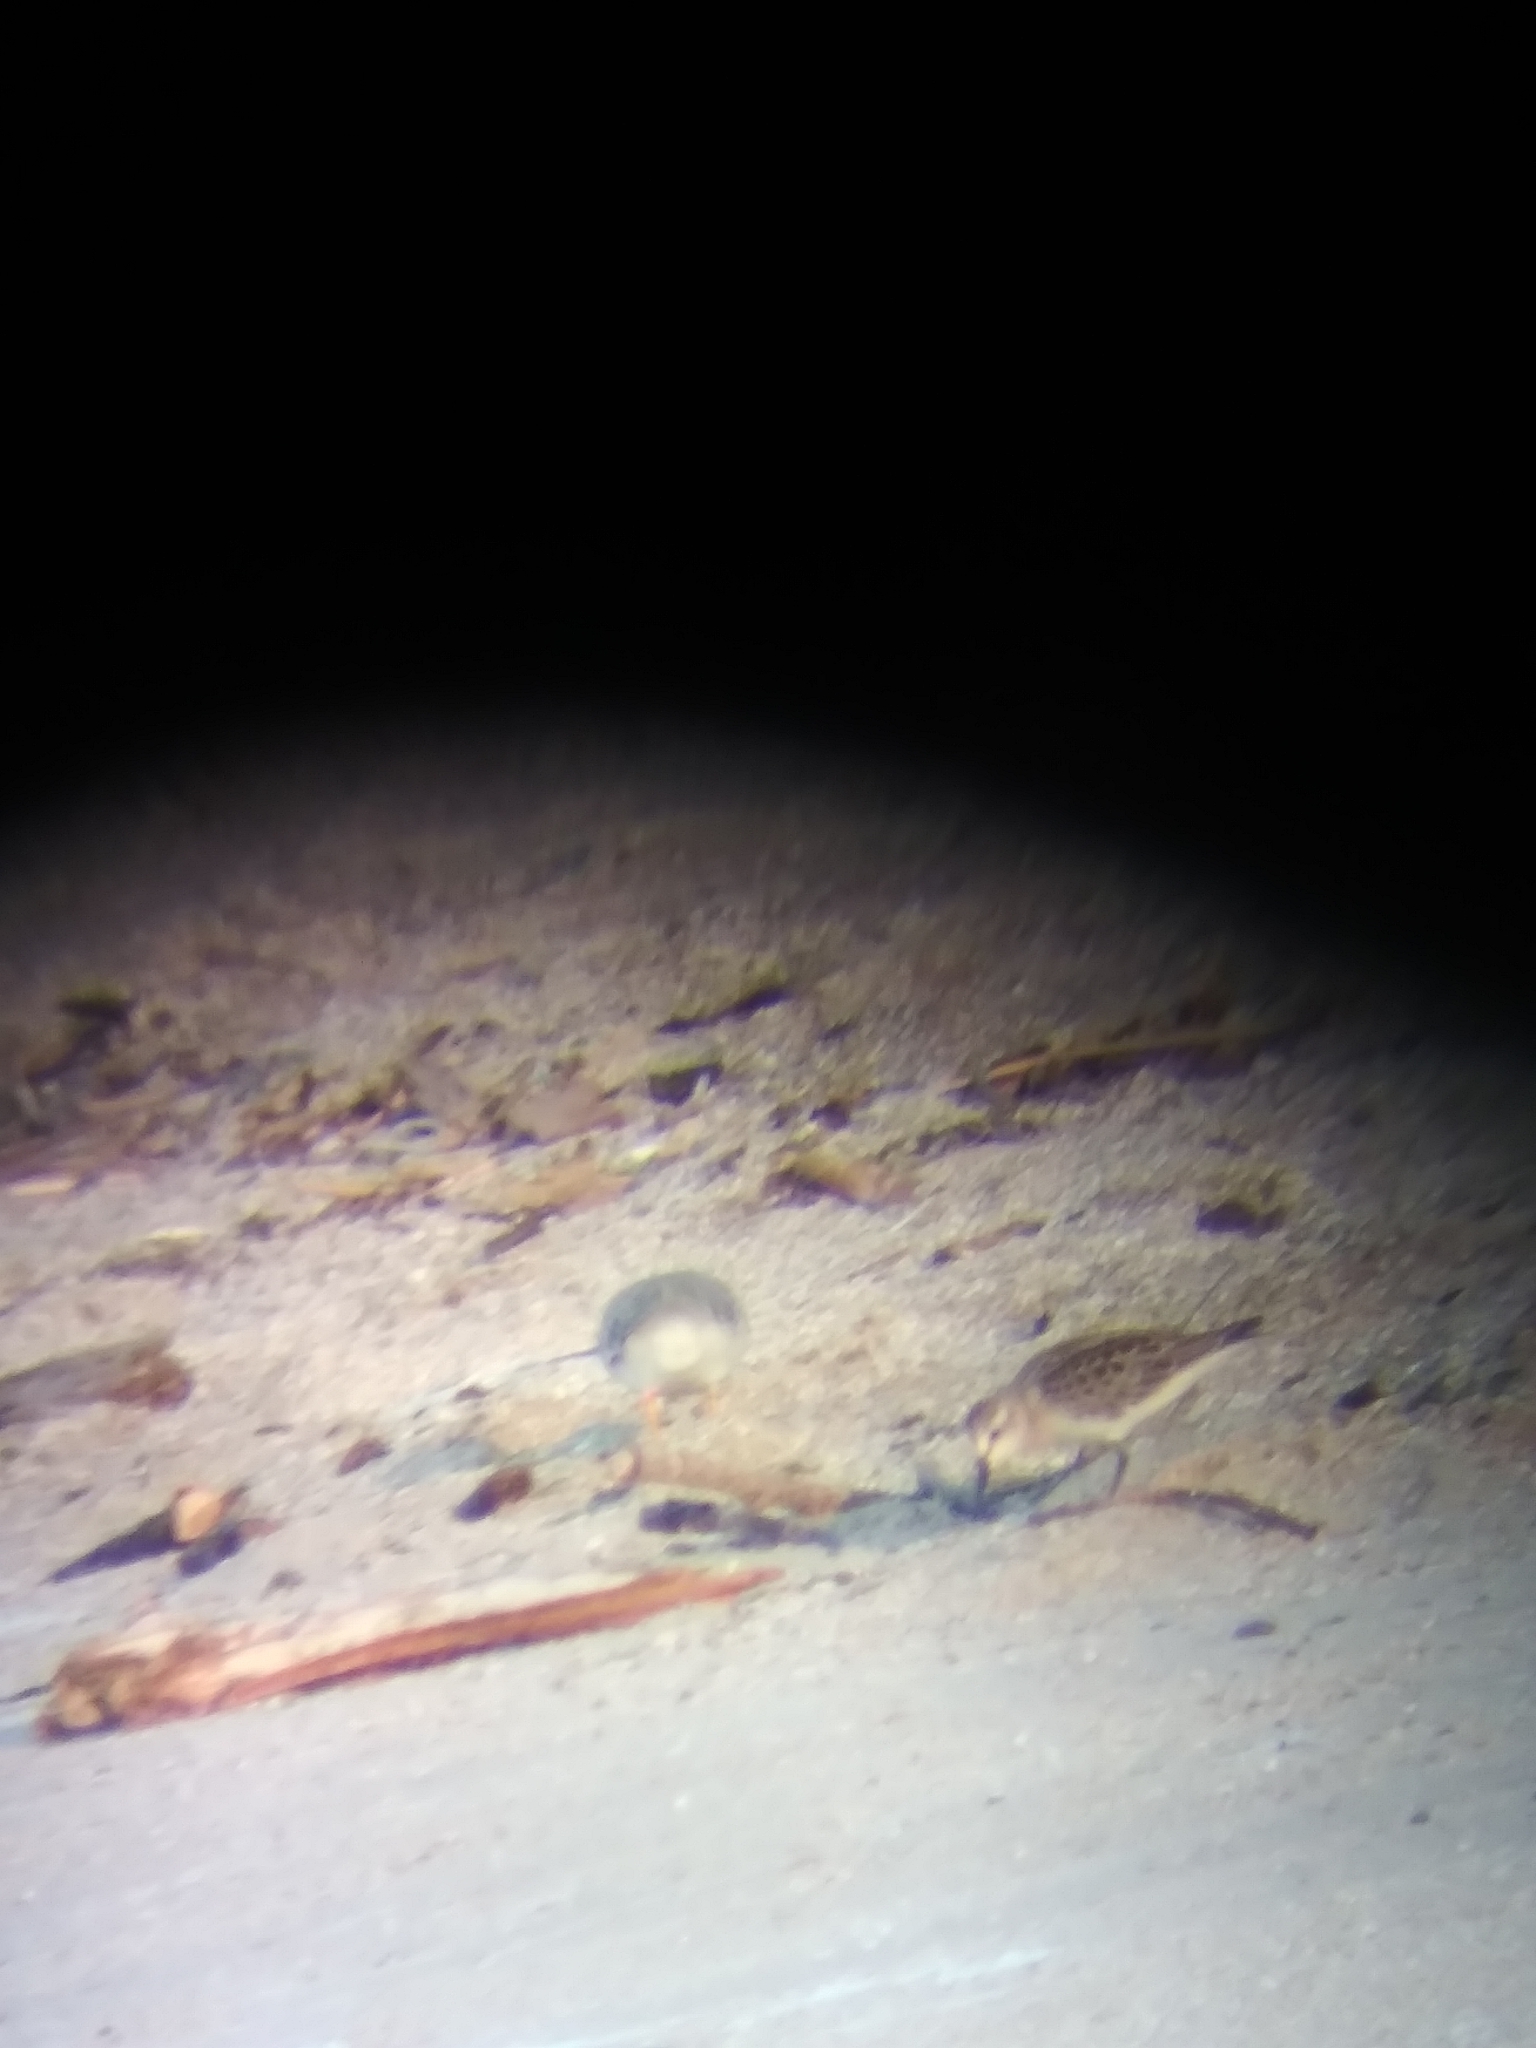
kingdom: Animalia
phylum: Chordata
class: Aves
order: Charadriiformes
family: Scolopacidae
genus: Calidris
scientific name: Calidris pusilla
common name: Semipalmated sandpiper
